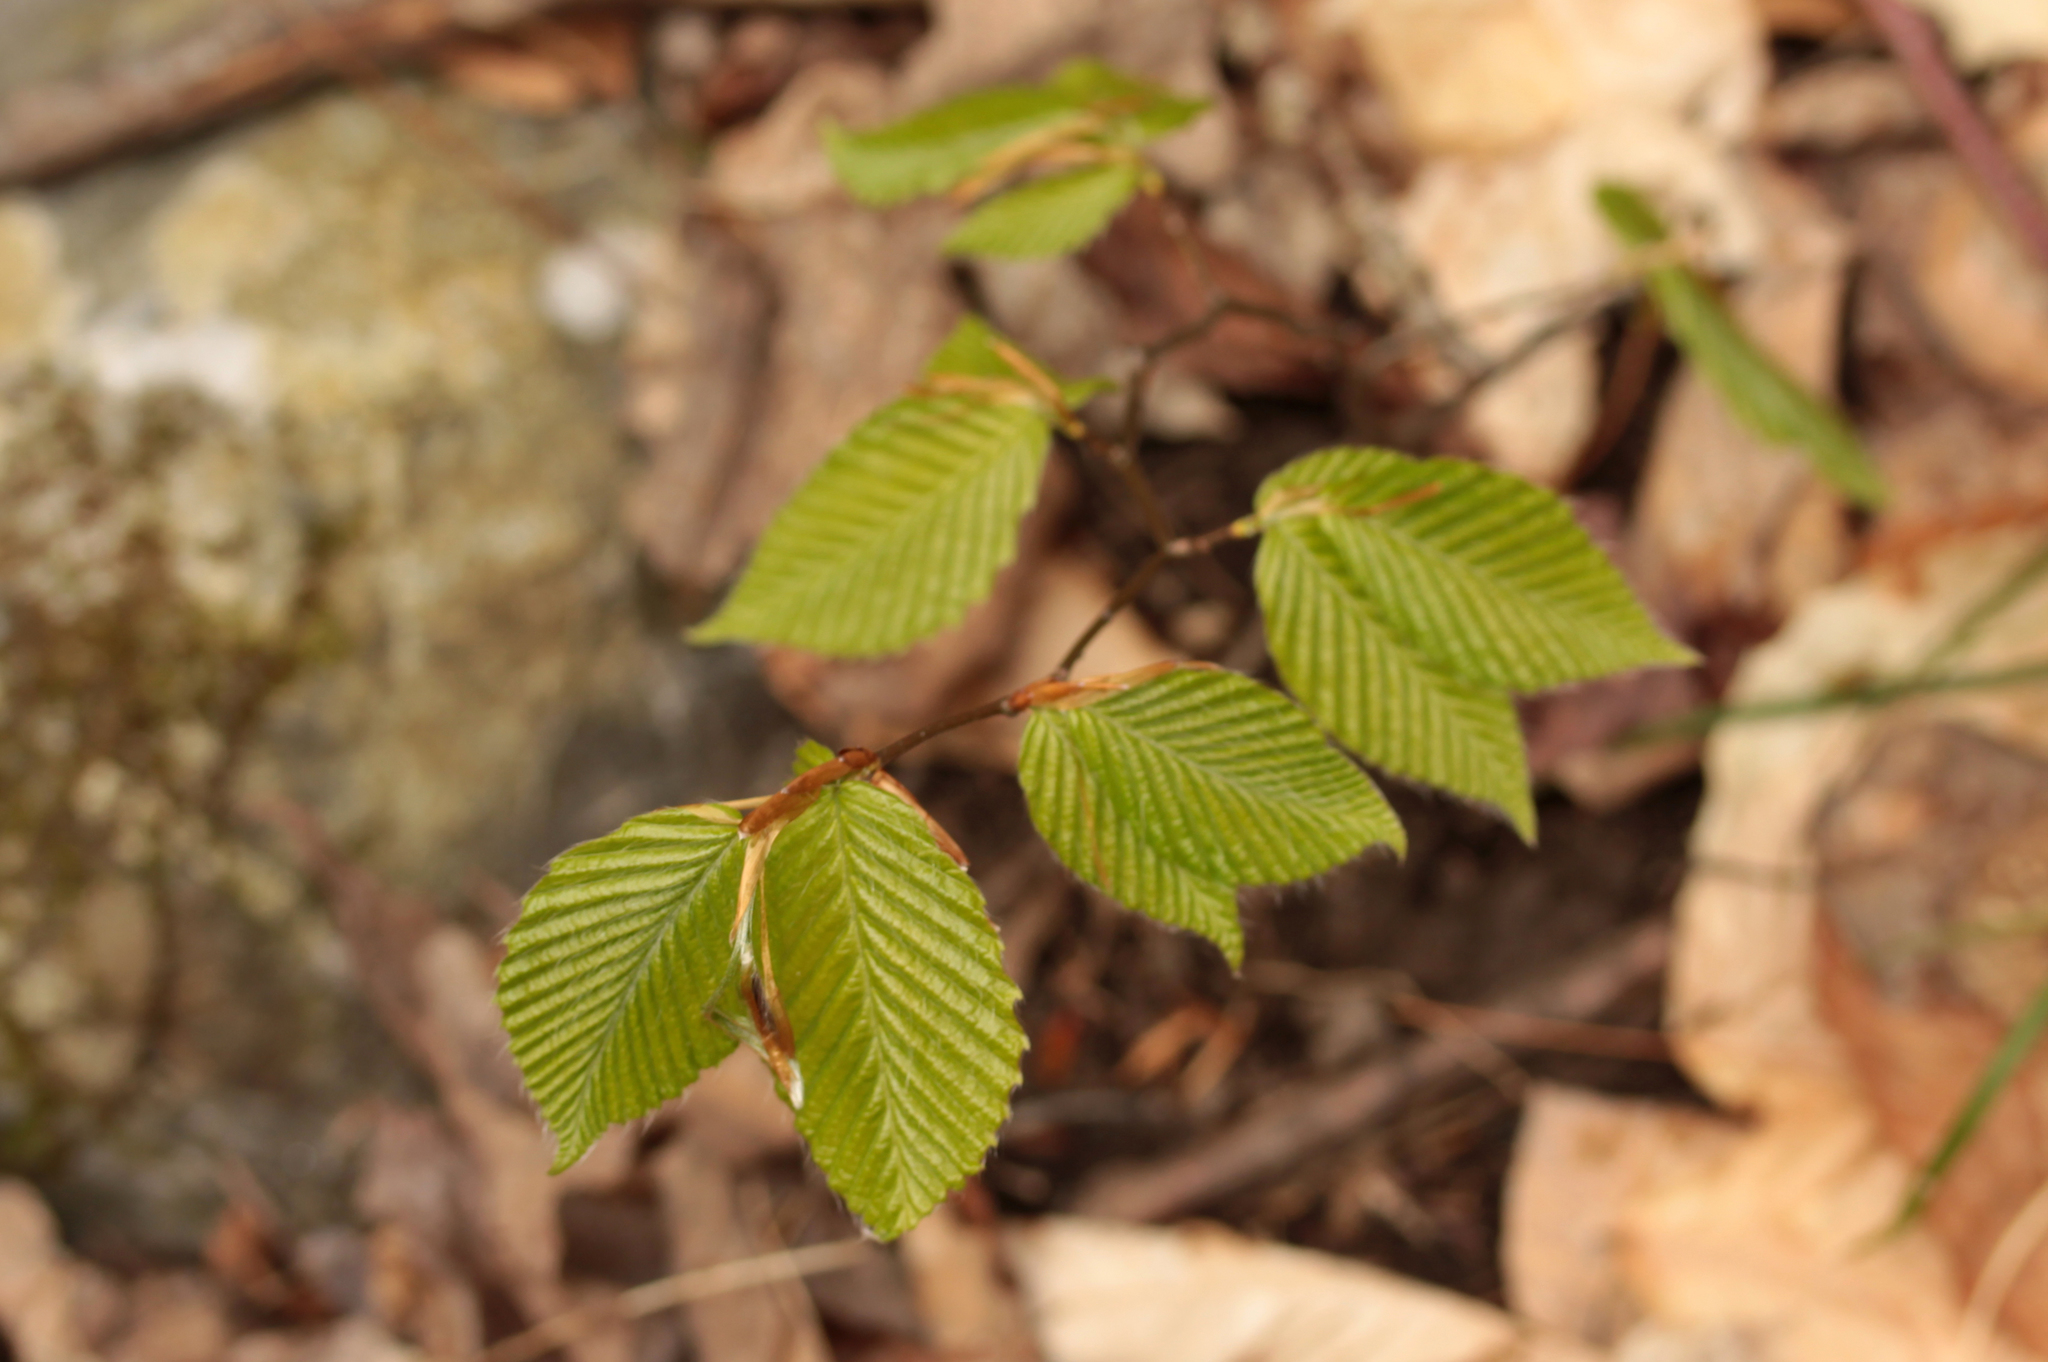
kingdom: Plantae
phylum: Tracheophyta
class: Magnoliopsida
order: Fagales
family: Fagaceae
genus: Fagus
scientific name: Fagus grandifolia
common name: American beech
